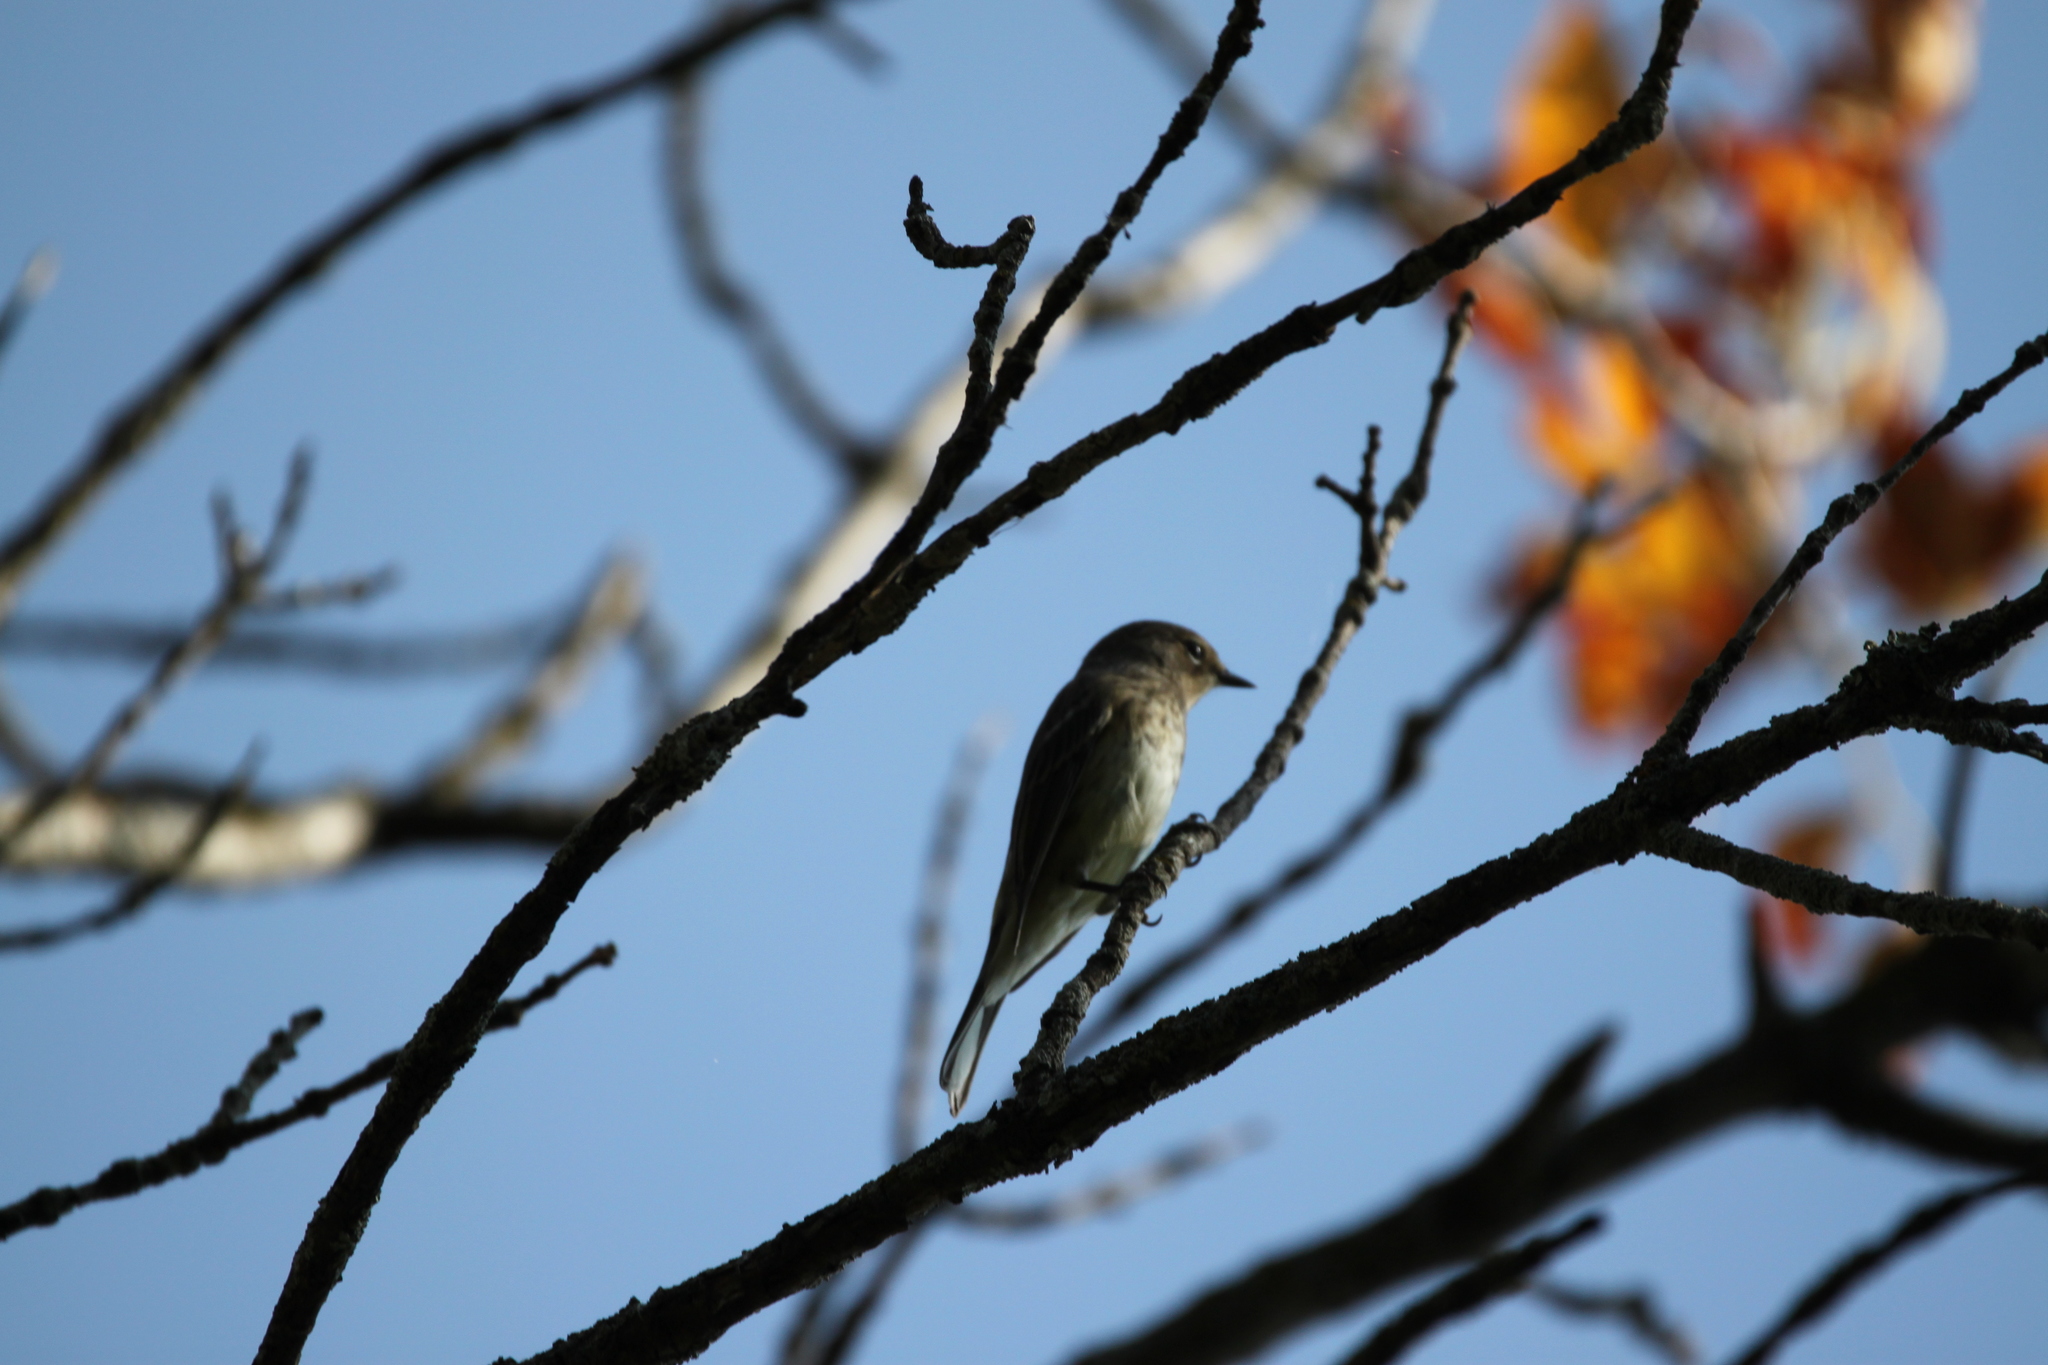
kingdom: Animalia
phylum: Chordata
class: Aves
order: Passeriformes
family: Parulidae
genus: Setophaga
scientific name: Setophaga coronata
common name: Myrtle warbler
